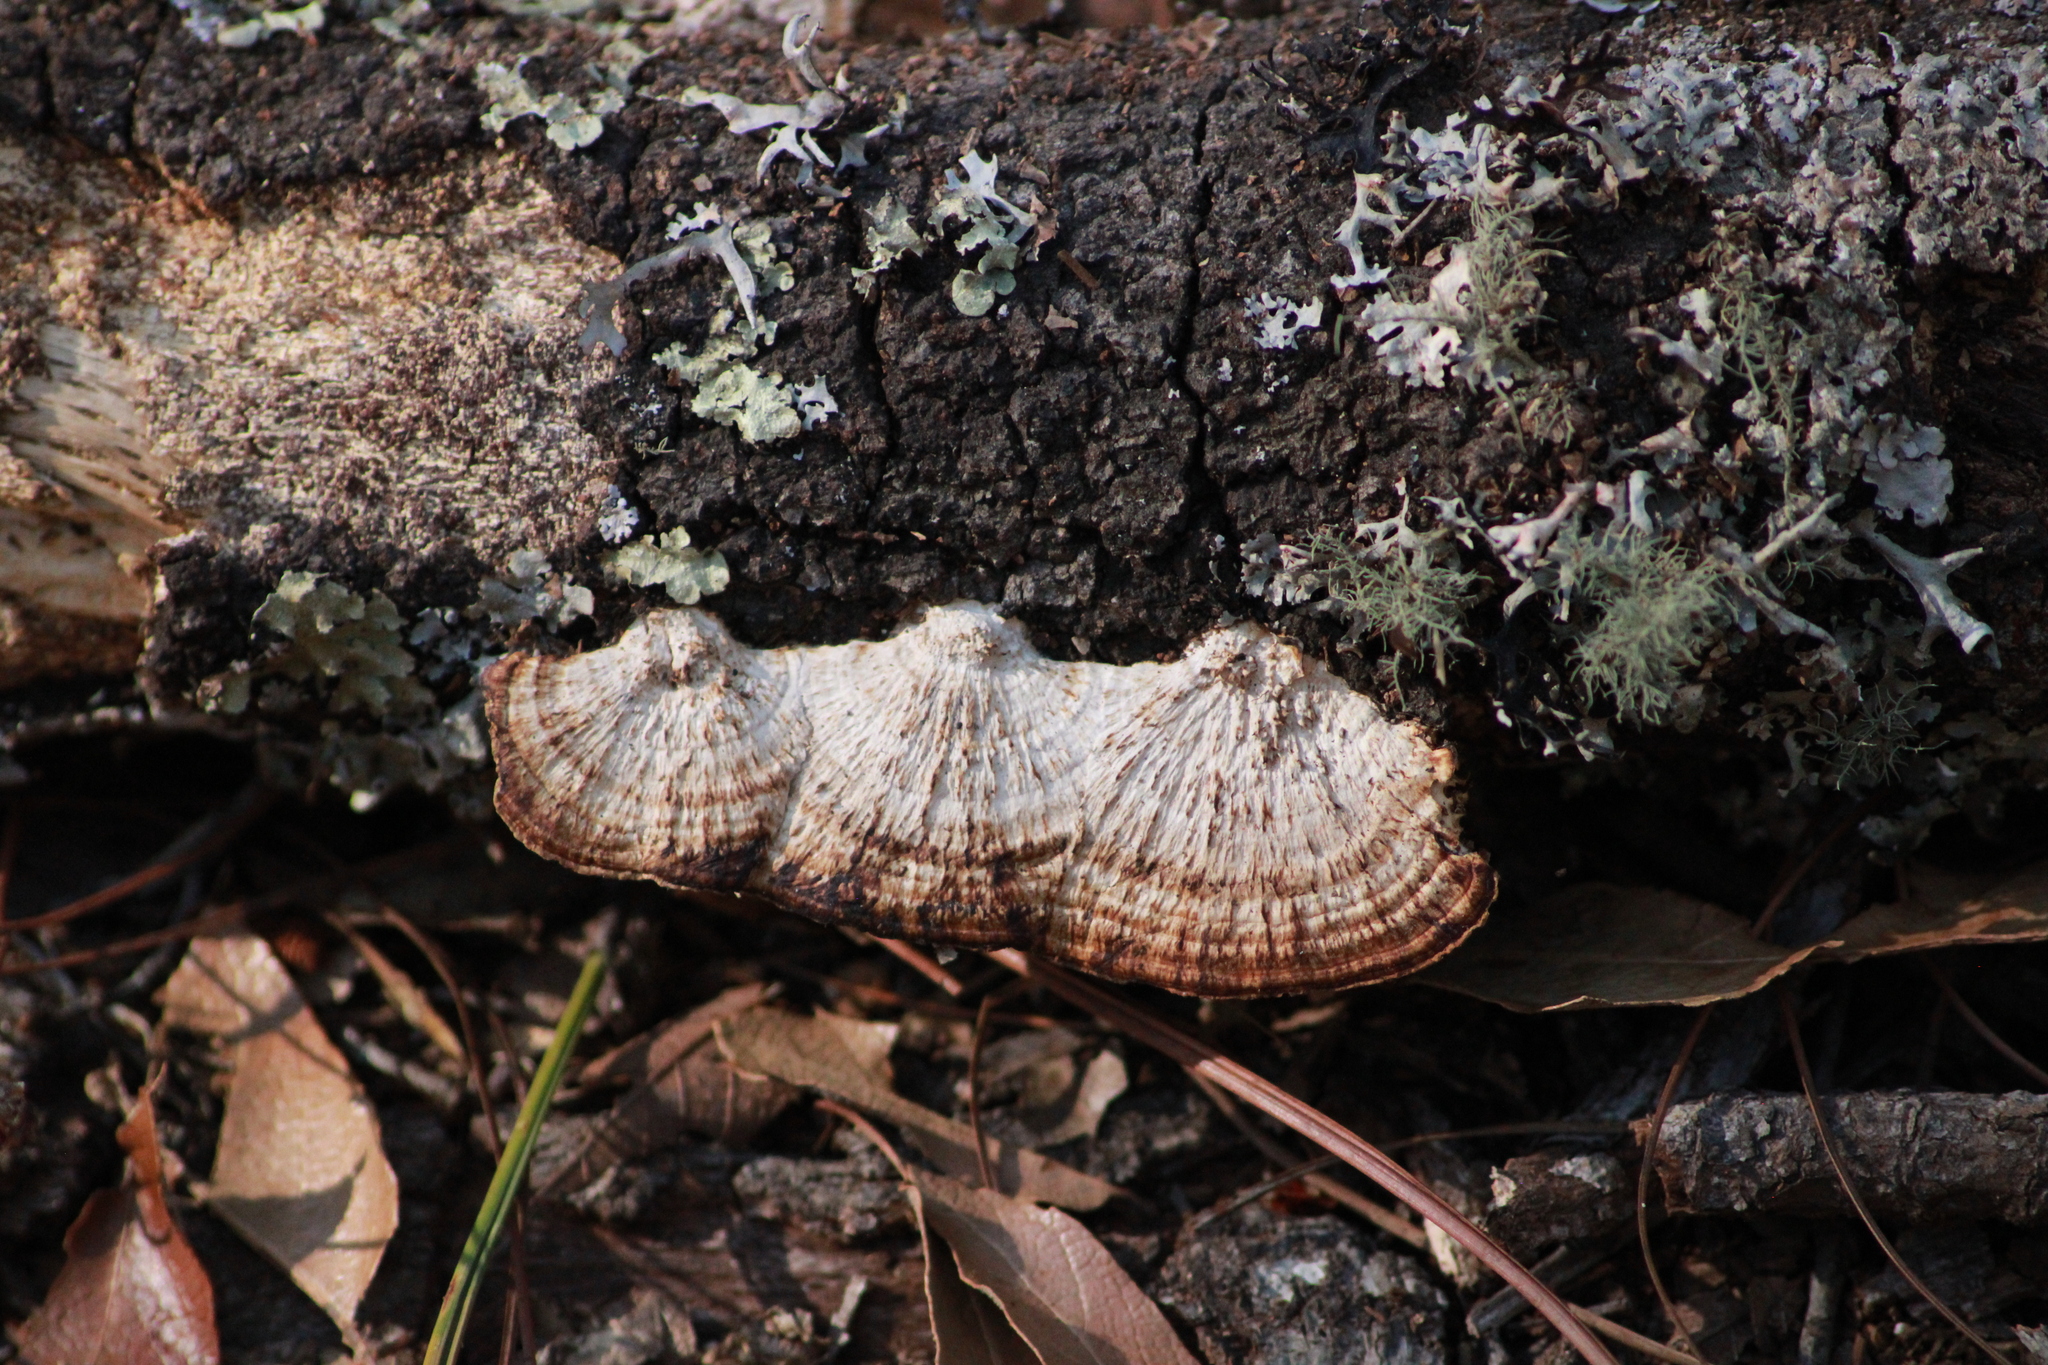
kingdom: Fungi
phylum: Basidiomycota
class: Agaricomycetes
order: Polyporales
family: Polyporaceae
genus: Pseudofavolus
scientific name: Pseudofavolus tenuis
